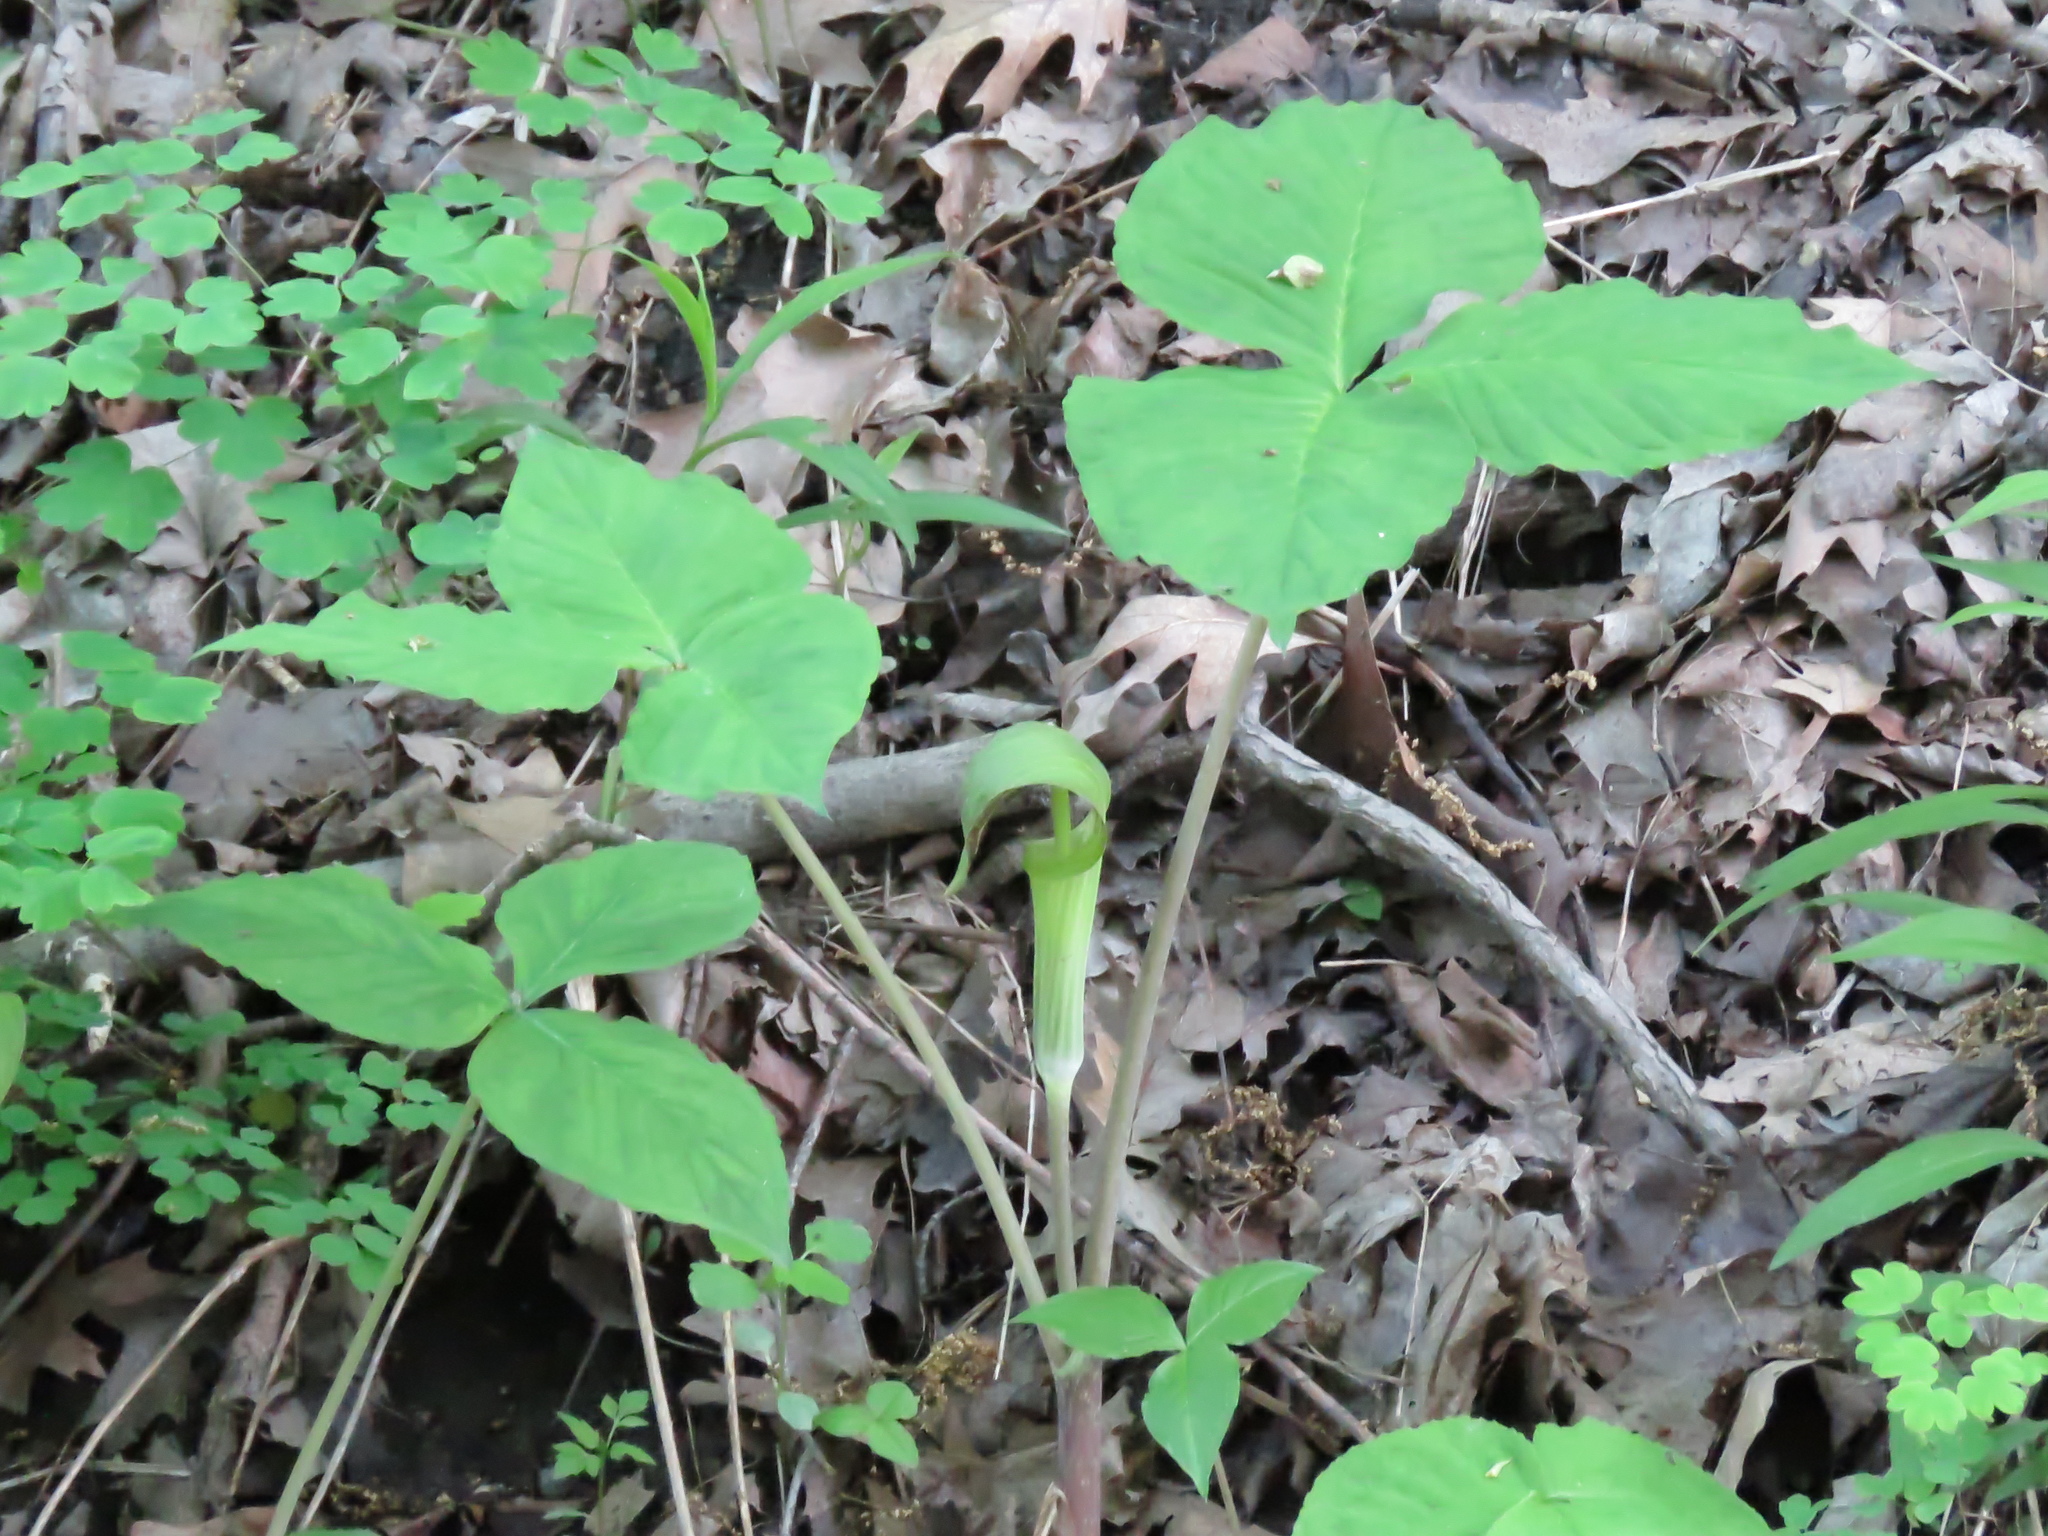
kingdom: Plantae
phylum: Tracheophyta
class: Liliopsida
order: Alismatales
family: Araceae
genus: Arisaema
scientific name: Arisaema triphyllum
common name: Jack-in-the-pulpit
